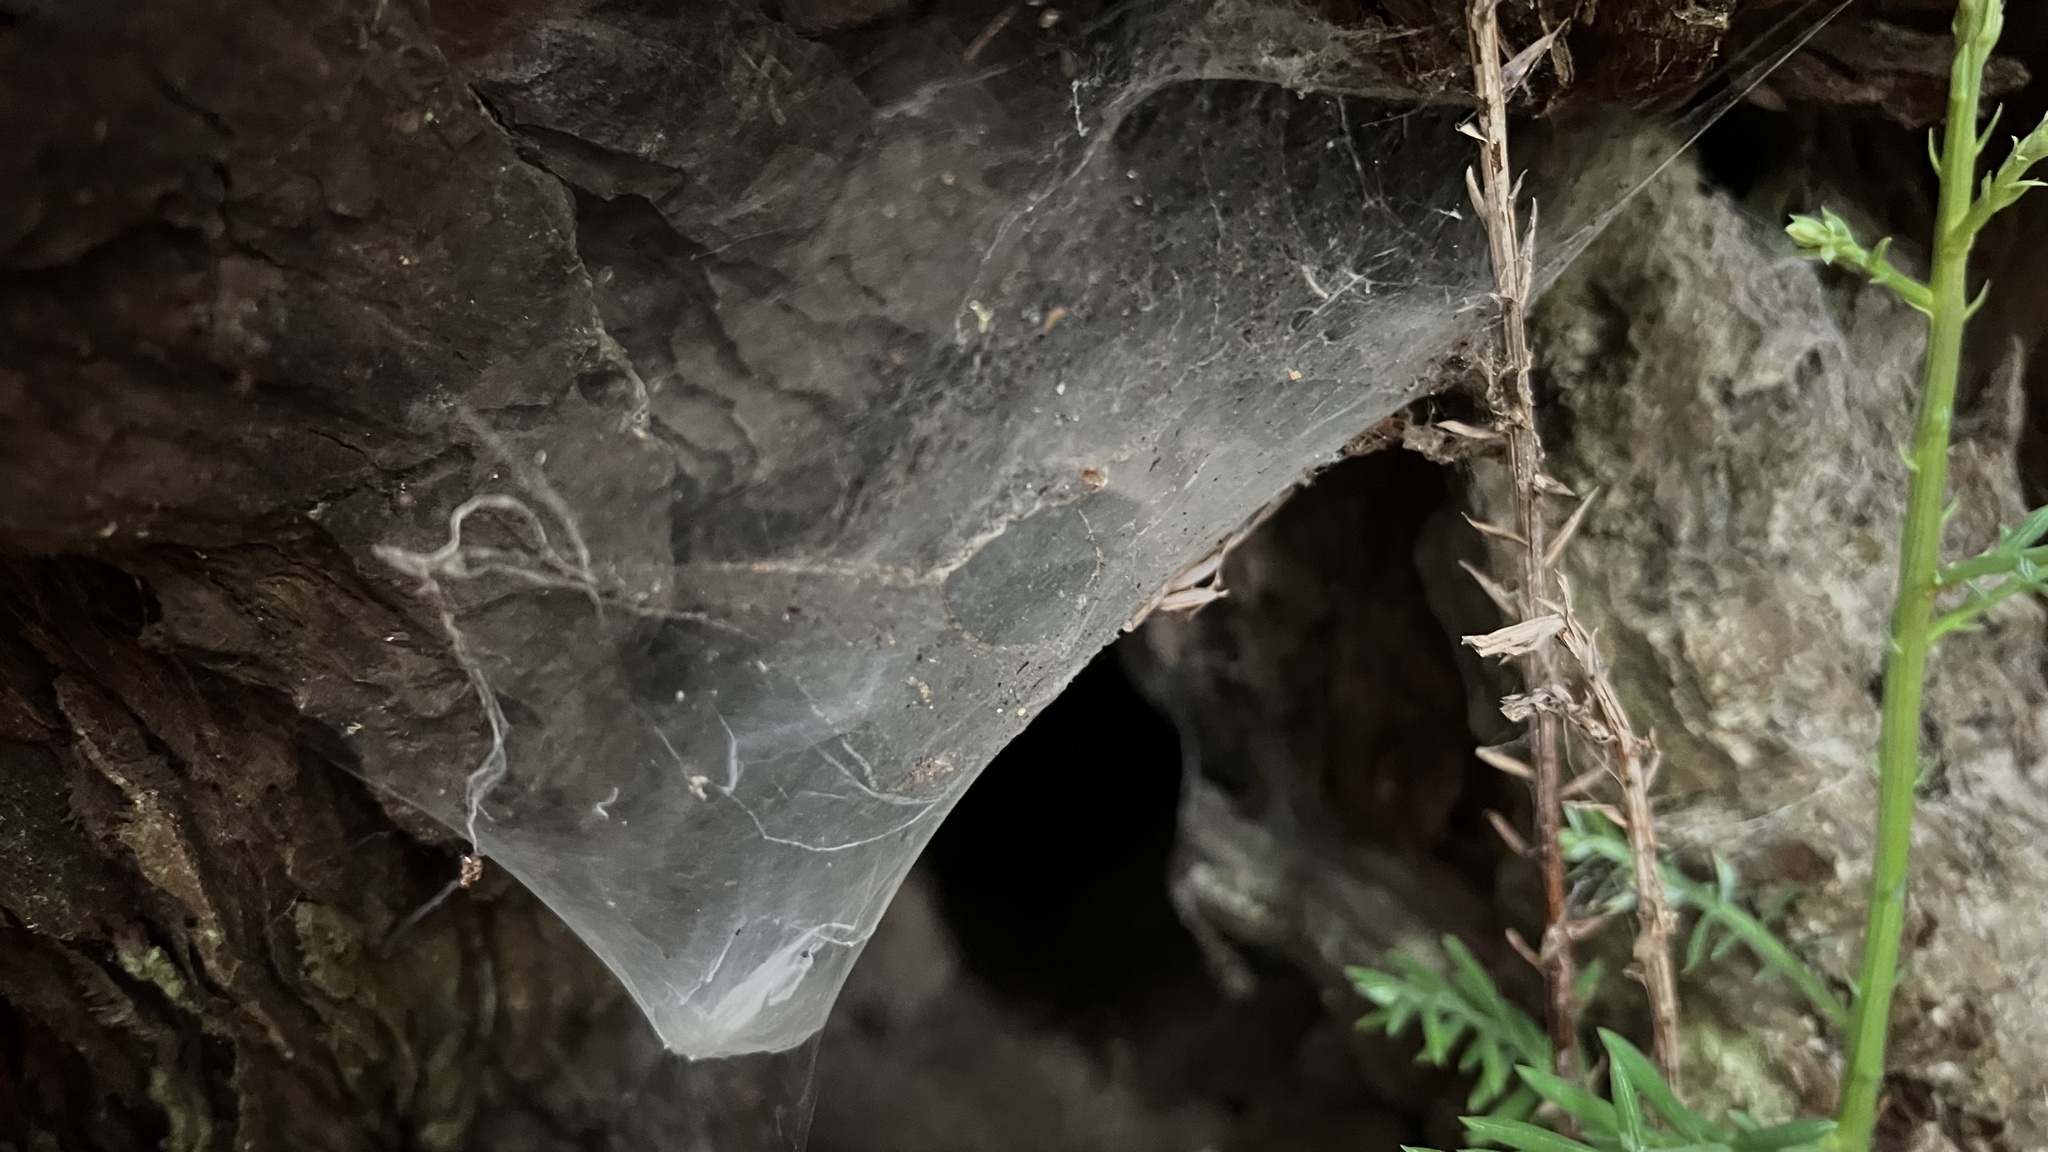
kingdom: Animalia
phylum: Arthropoda
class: Arachnida
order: Araneae
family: Cybaeidae
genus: Calymmaria
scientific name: Calymmaria
